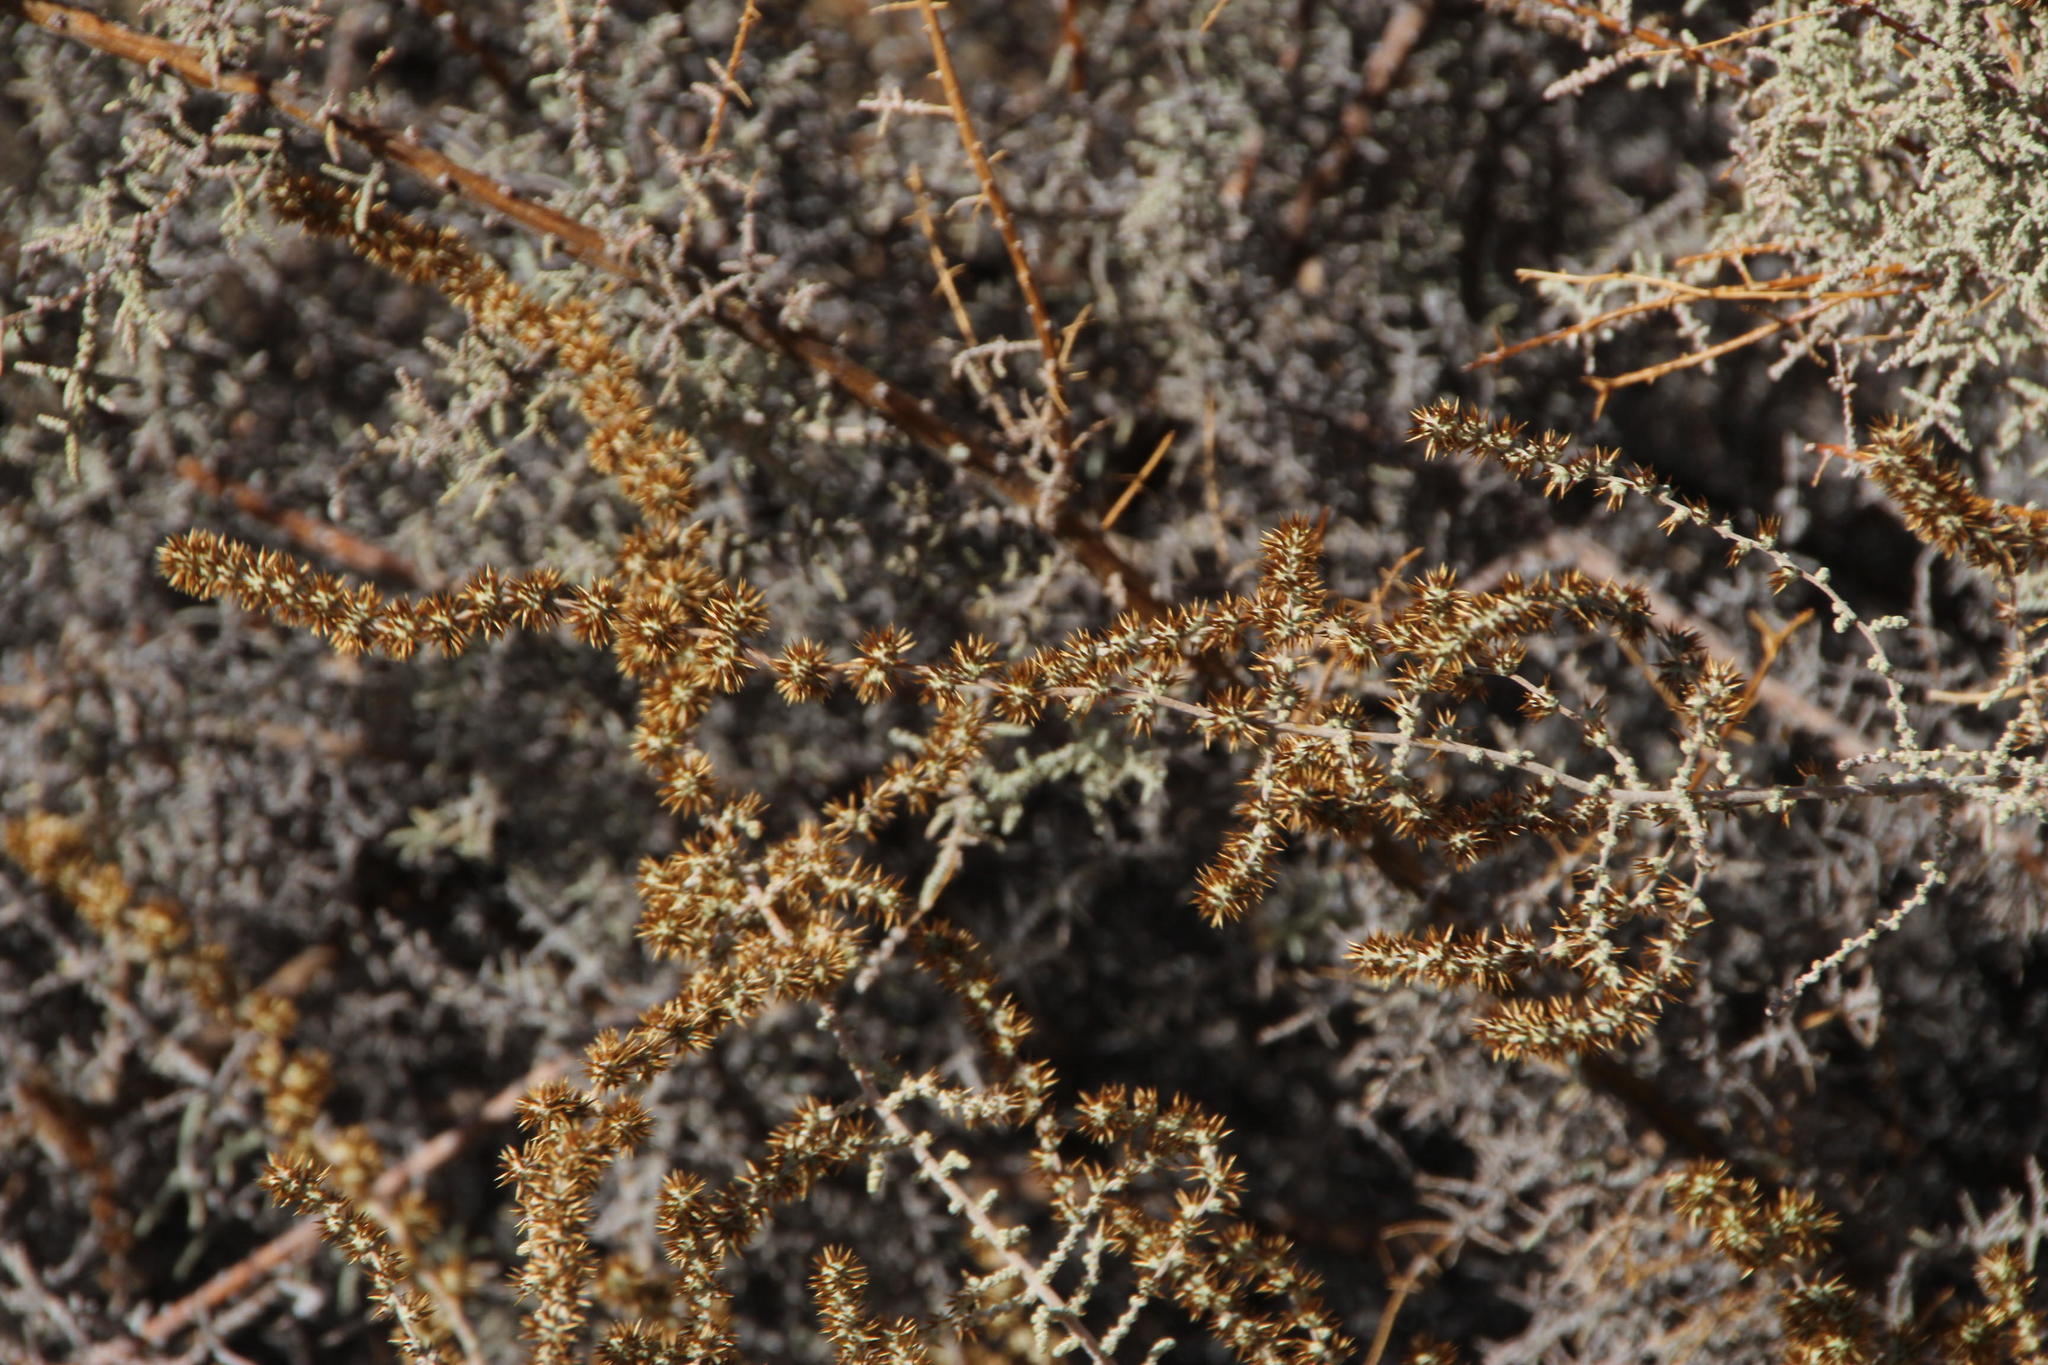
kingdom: Plantae
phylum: Tracheophyta
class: Magnoliopsida
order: Asterales
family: Asteraceae
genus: Seriphium
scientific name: Seriphium plumosum
